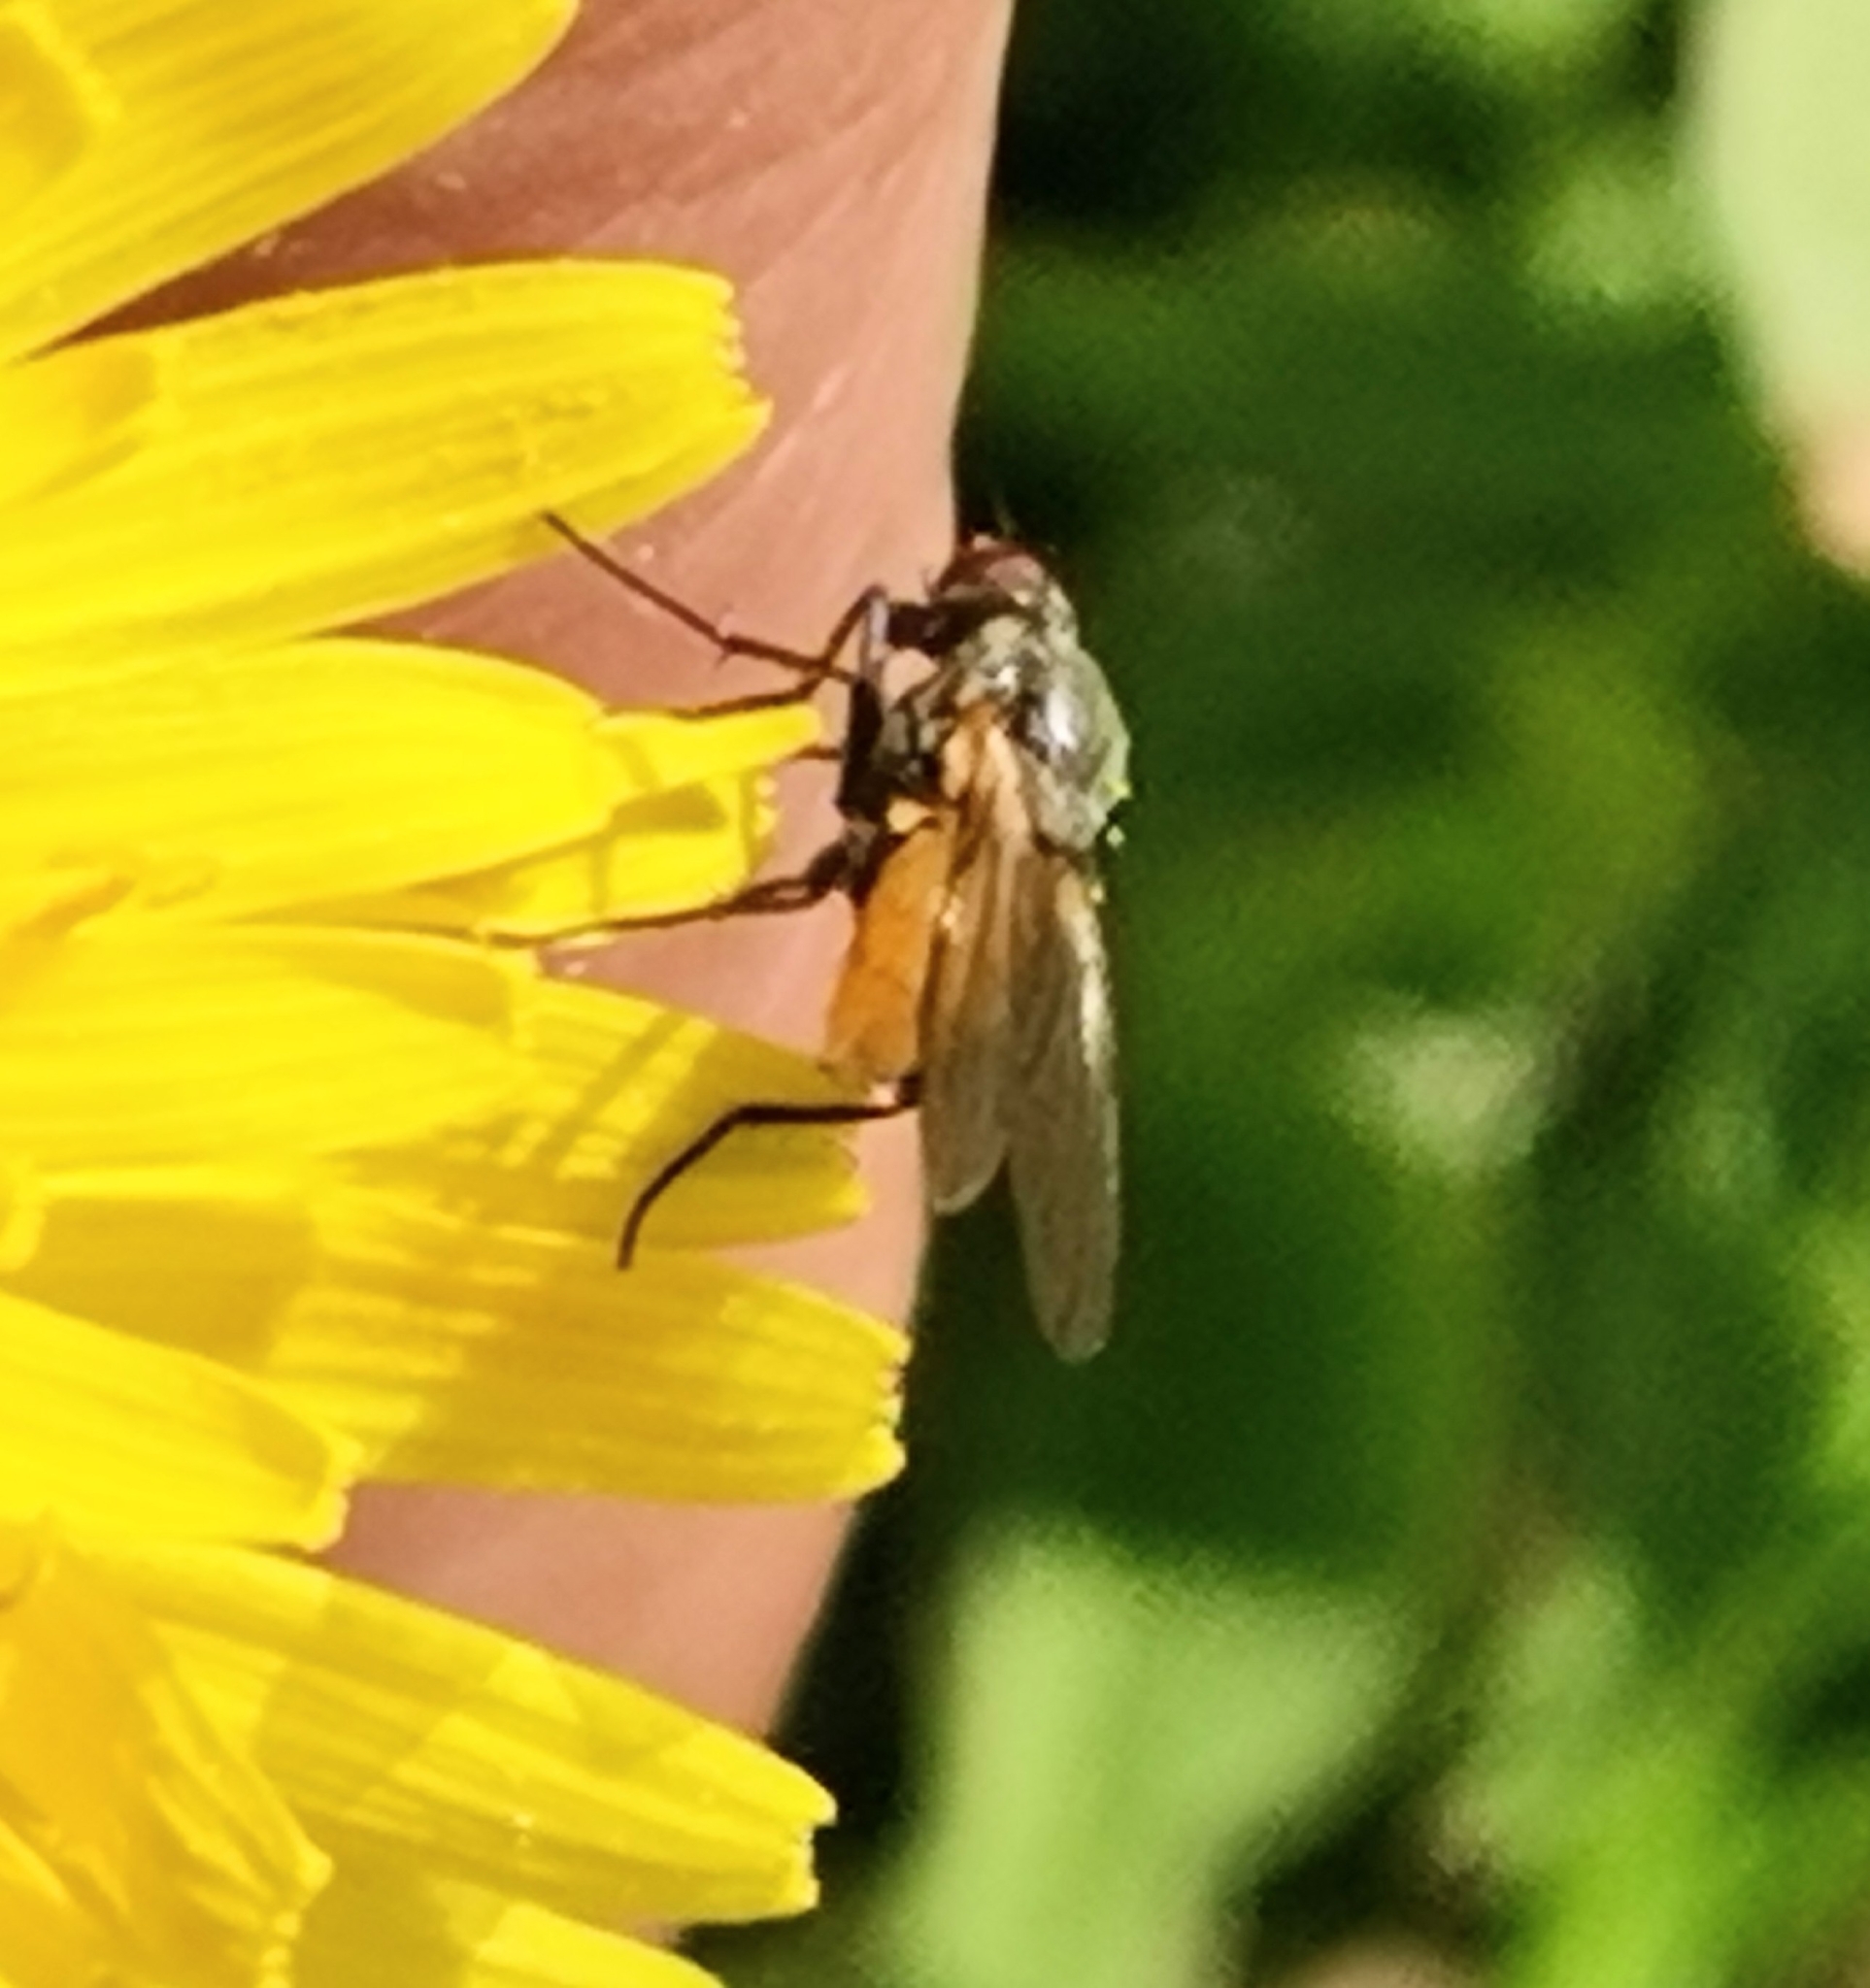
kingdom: Animalia
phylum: Arthropoda
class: Insecta
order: Diptera
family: Muscidae
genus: Thricops
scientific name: Thricops semicinereus
